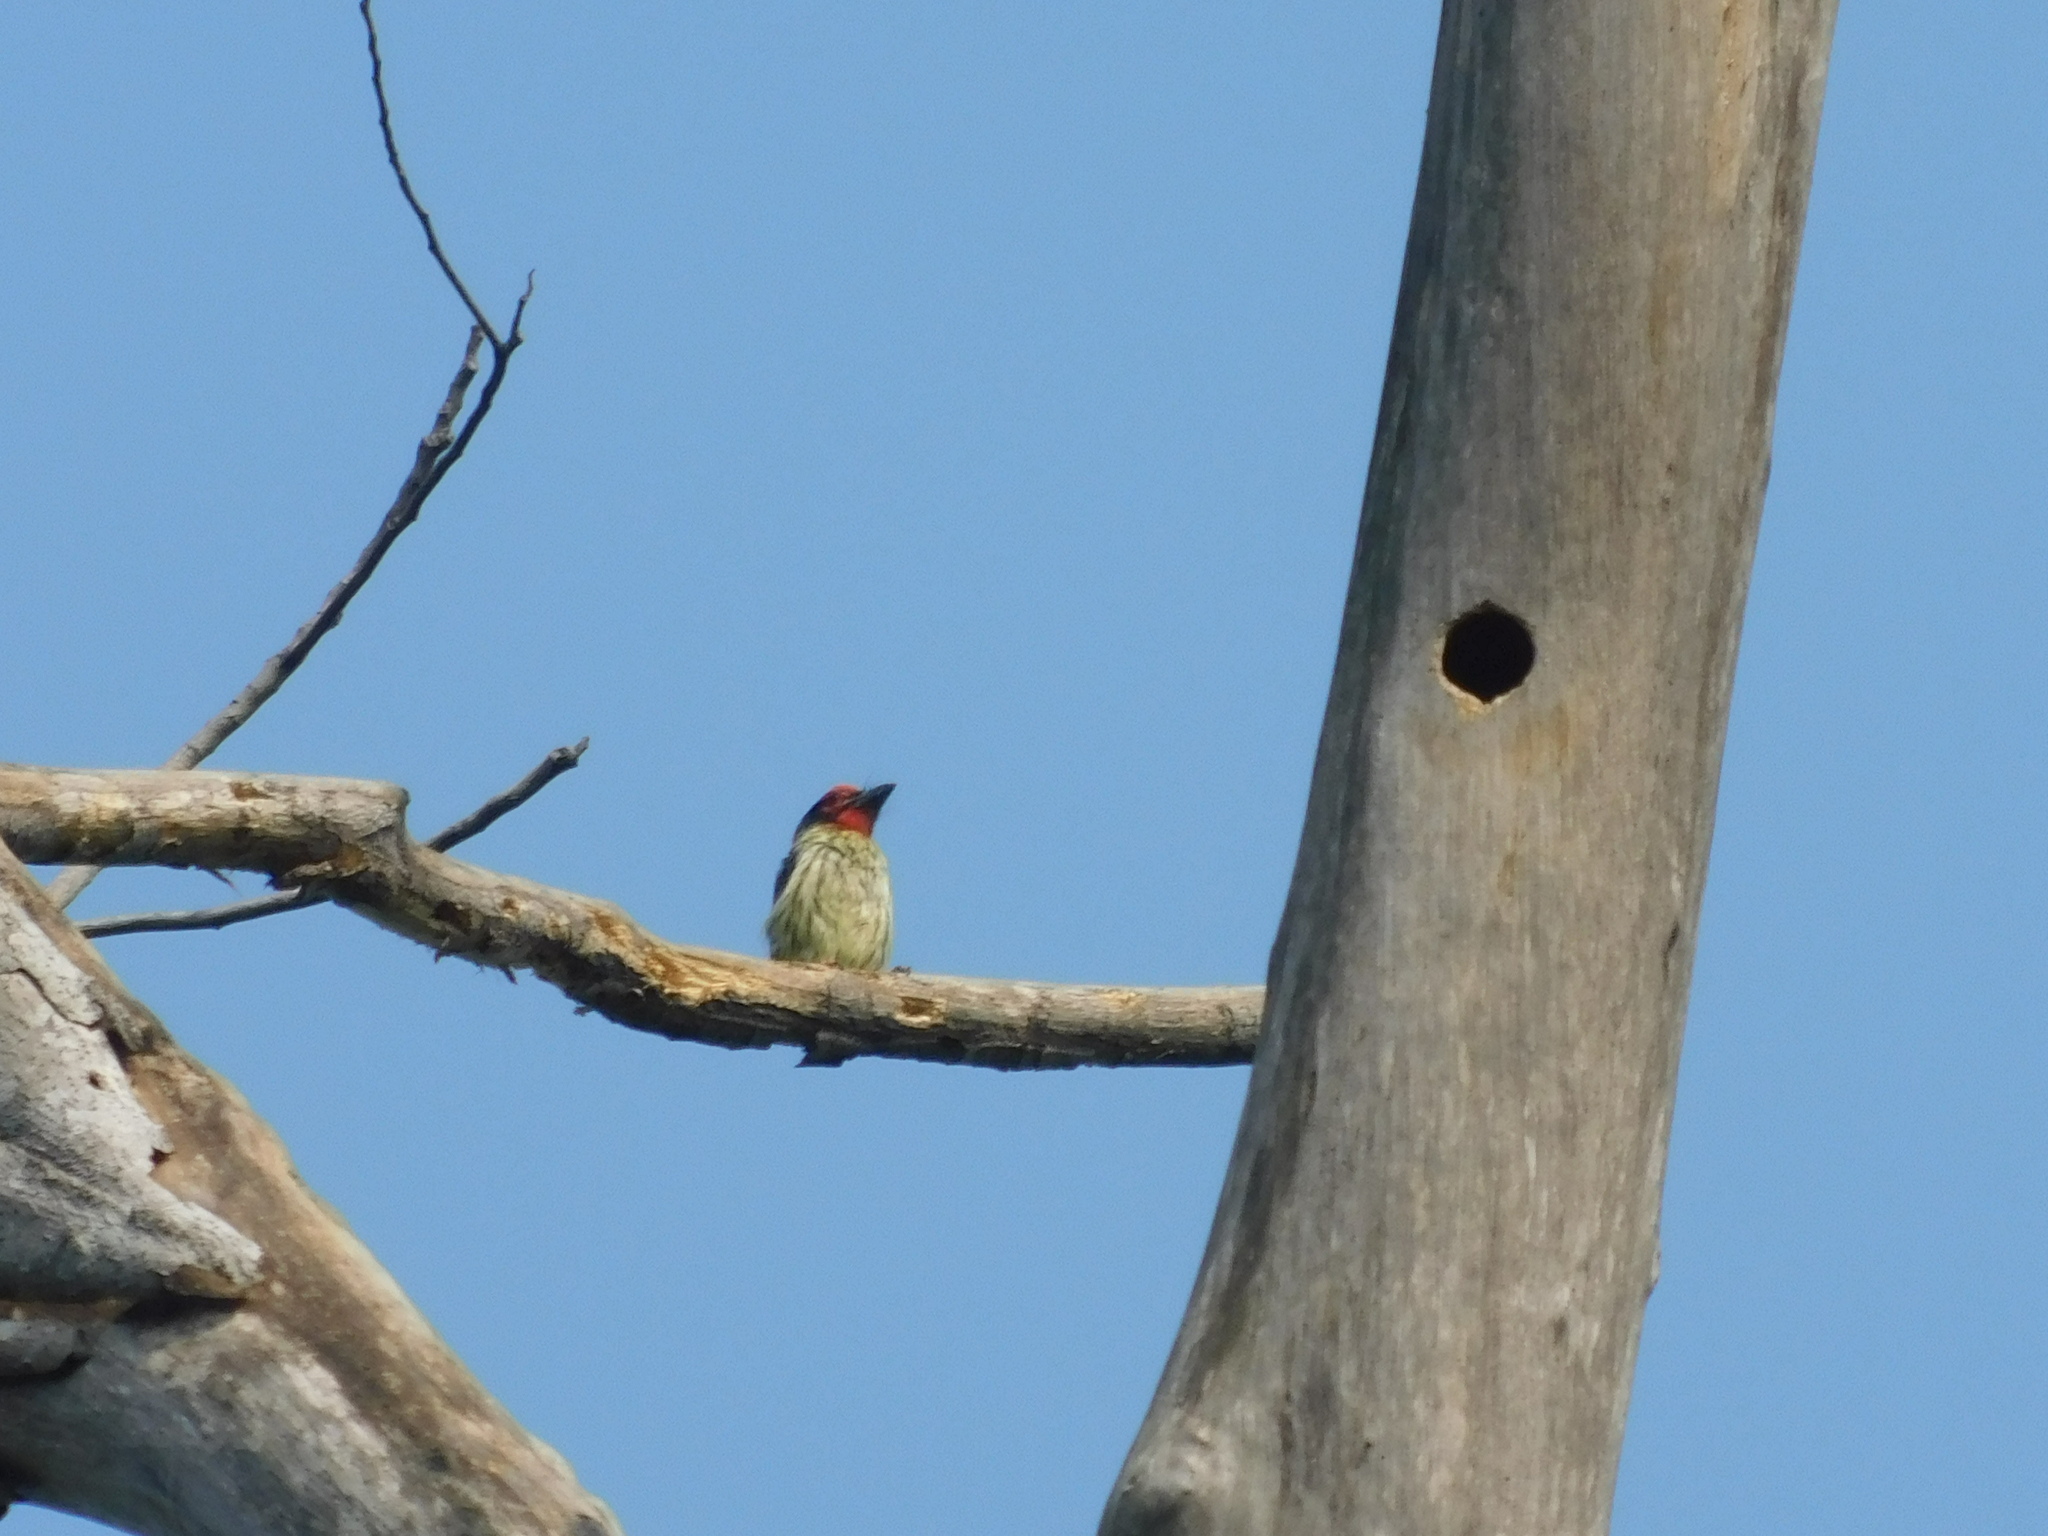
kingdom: Animalia
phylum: Chordata
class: Aves
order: Piciformes
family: Megalaimidae
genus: Psilopogon
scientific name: Psilopogon haemacephalus
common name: Coppersmith barbet
